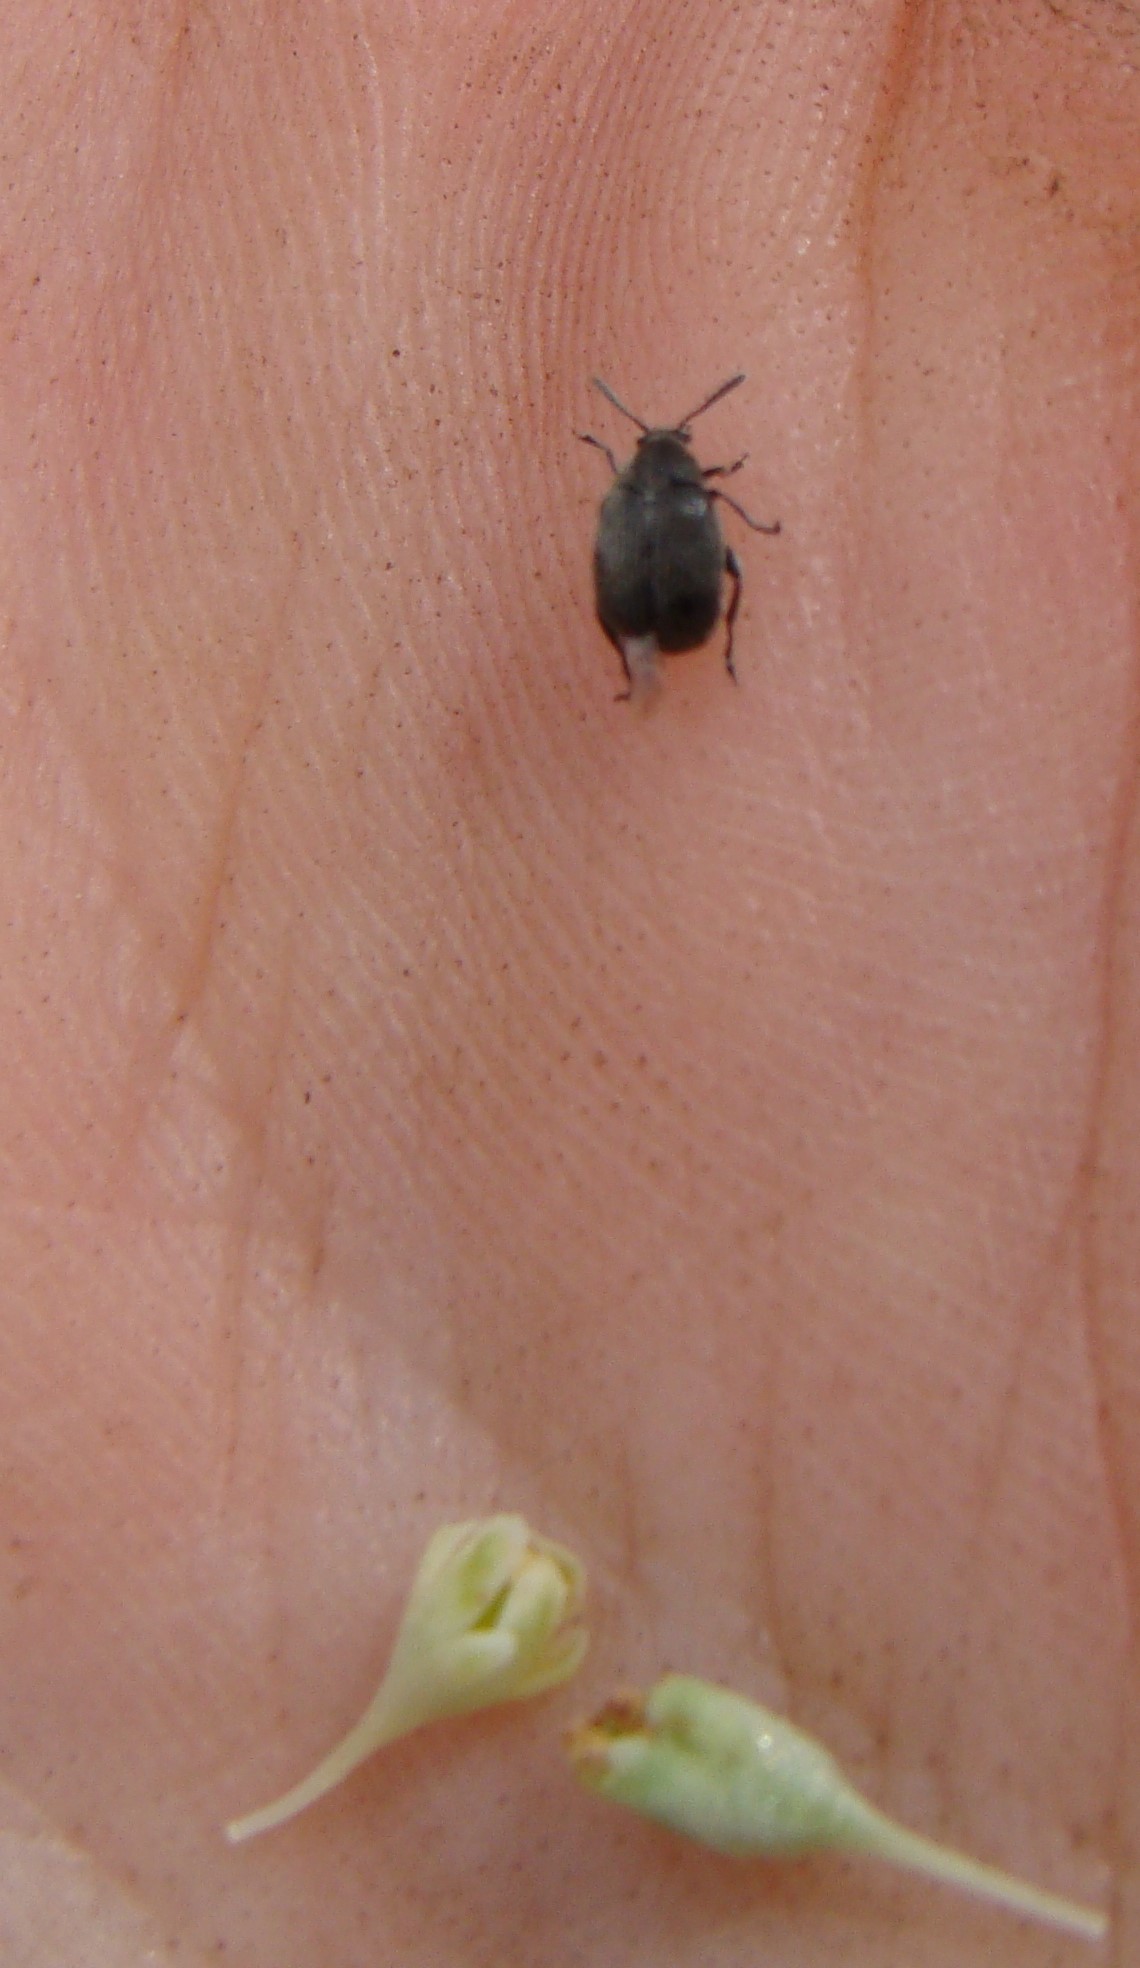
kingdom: Animalia
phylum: Arthropoda
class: Insecta
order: Coleoptera
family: Chrysomelidae
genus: Bruchidius
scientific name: Bruchidius villosus
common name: Scotch broom bruchid
